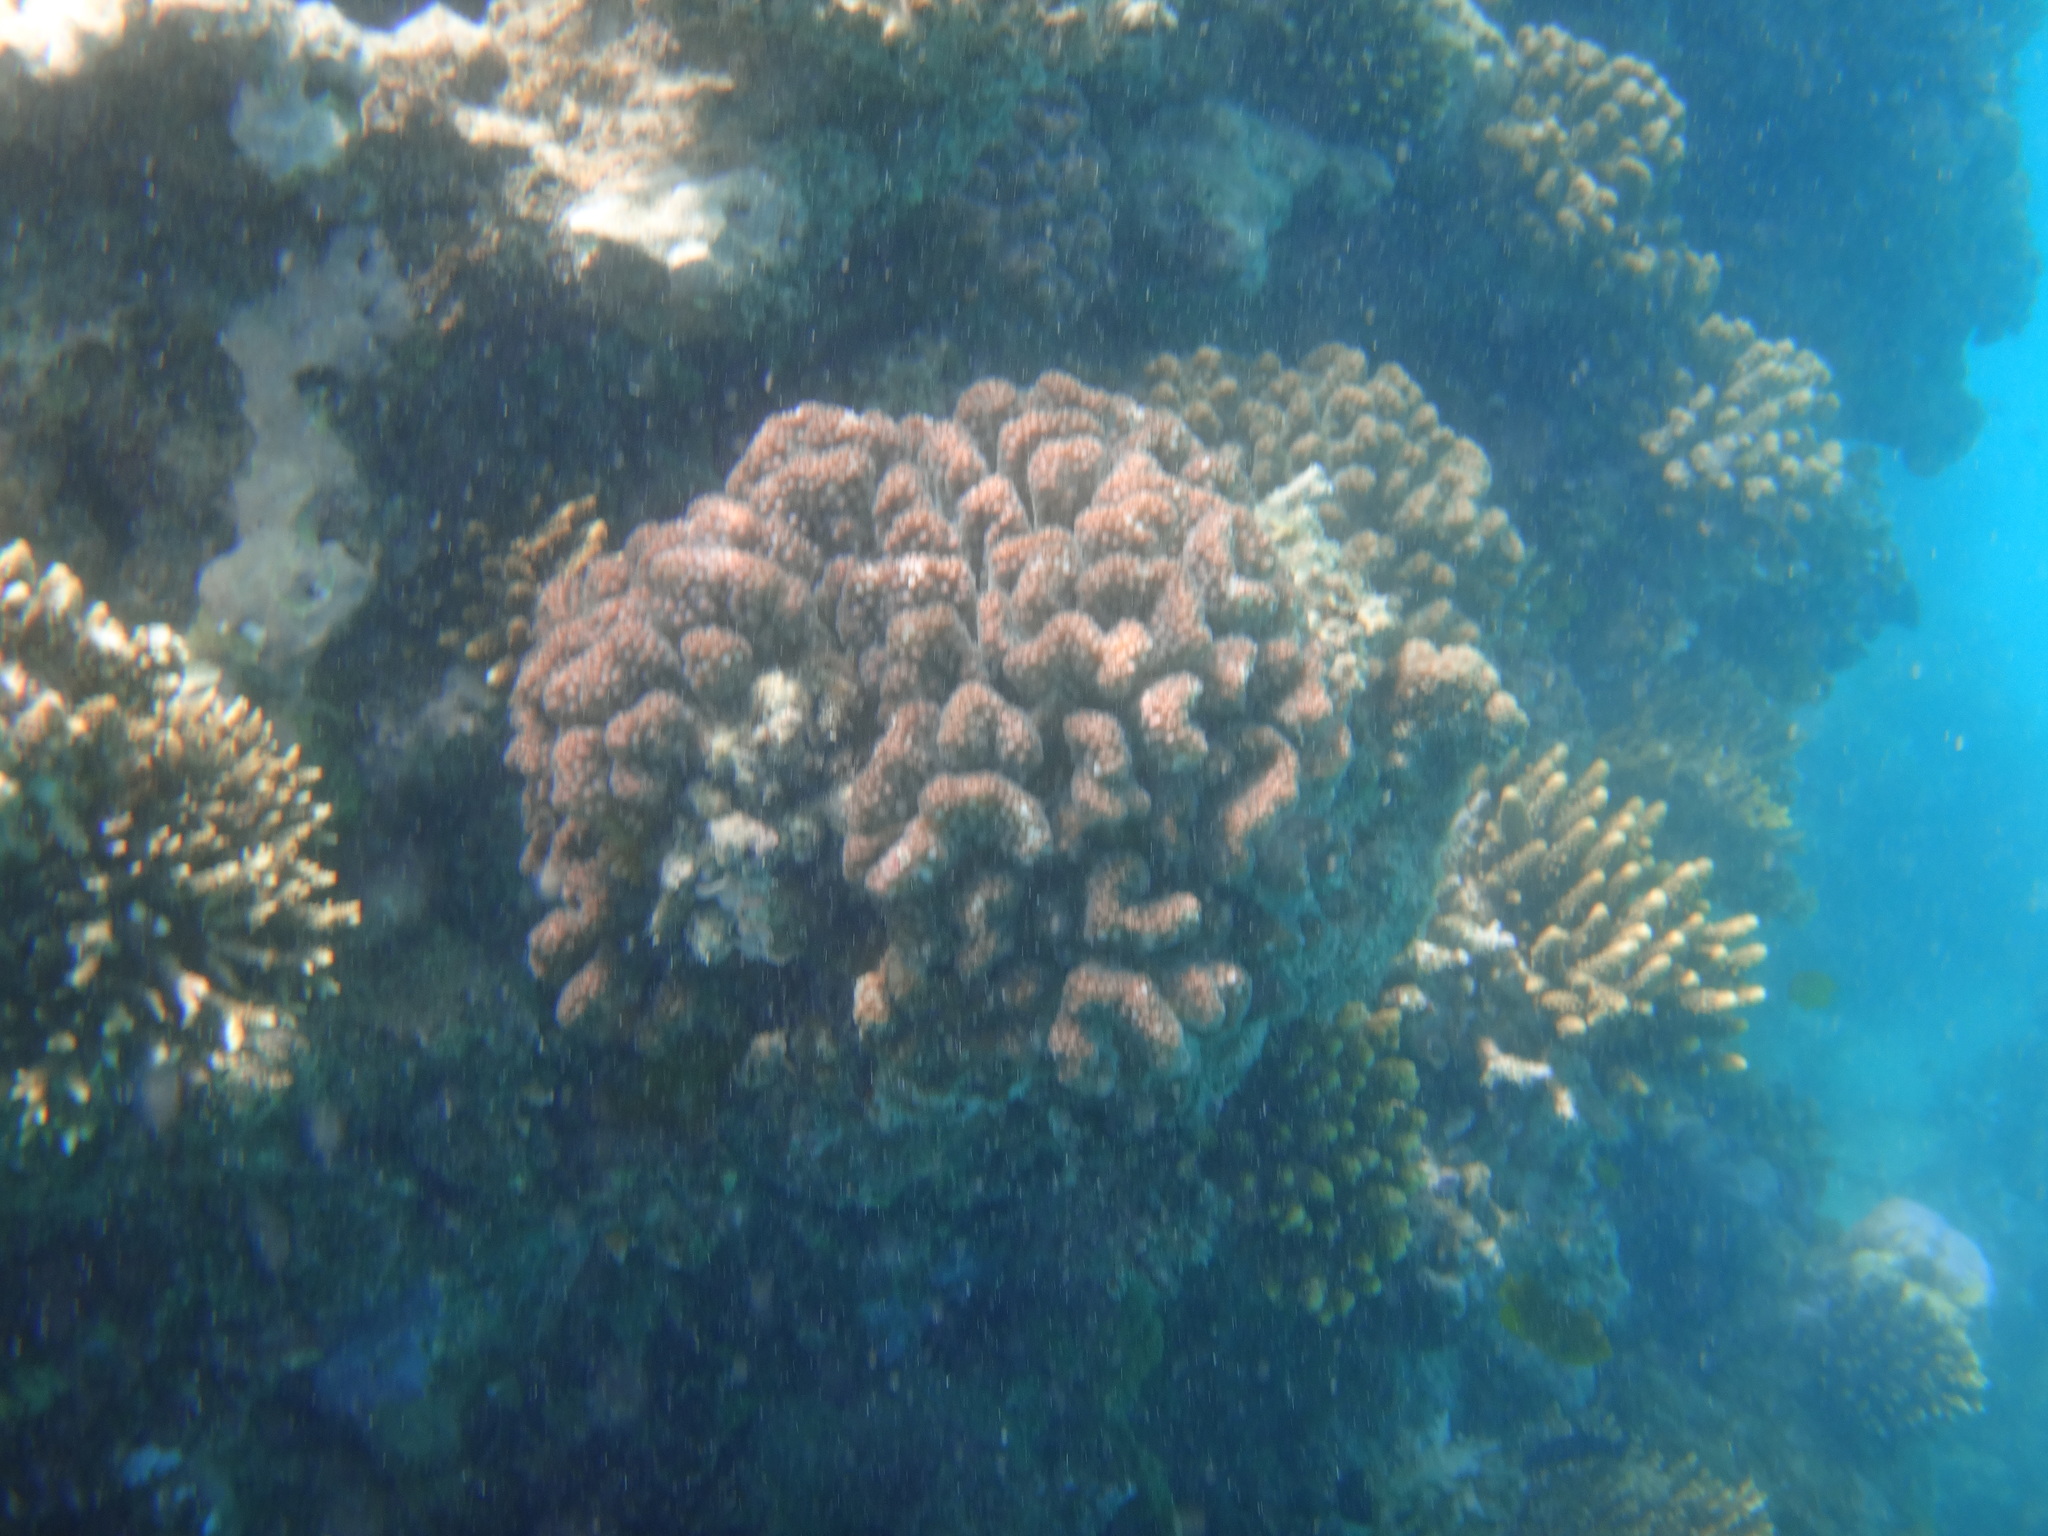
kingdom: Animalia
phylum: Cnidaria
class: Anthozoa
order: Scleractinia
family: Pocilloporidae
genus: Pocillopora
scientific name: Pocillopora verrucosa
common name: Cauliflower coral
